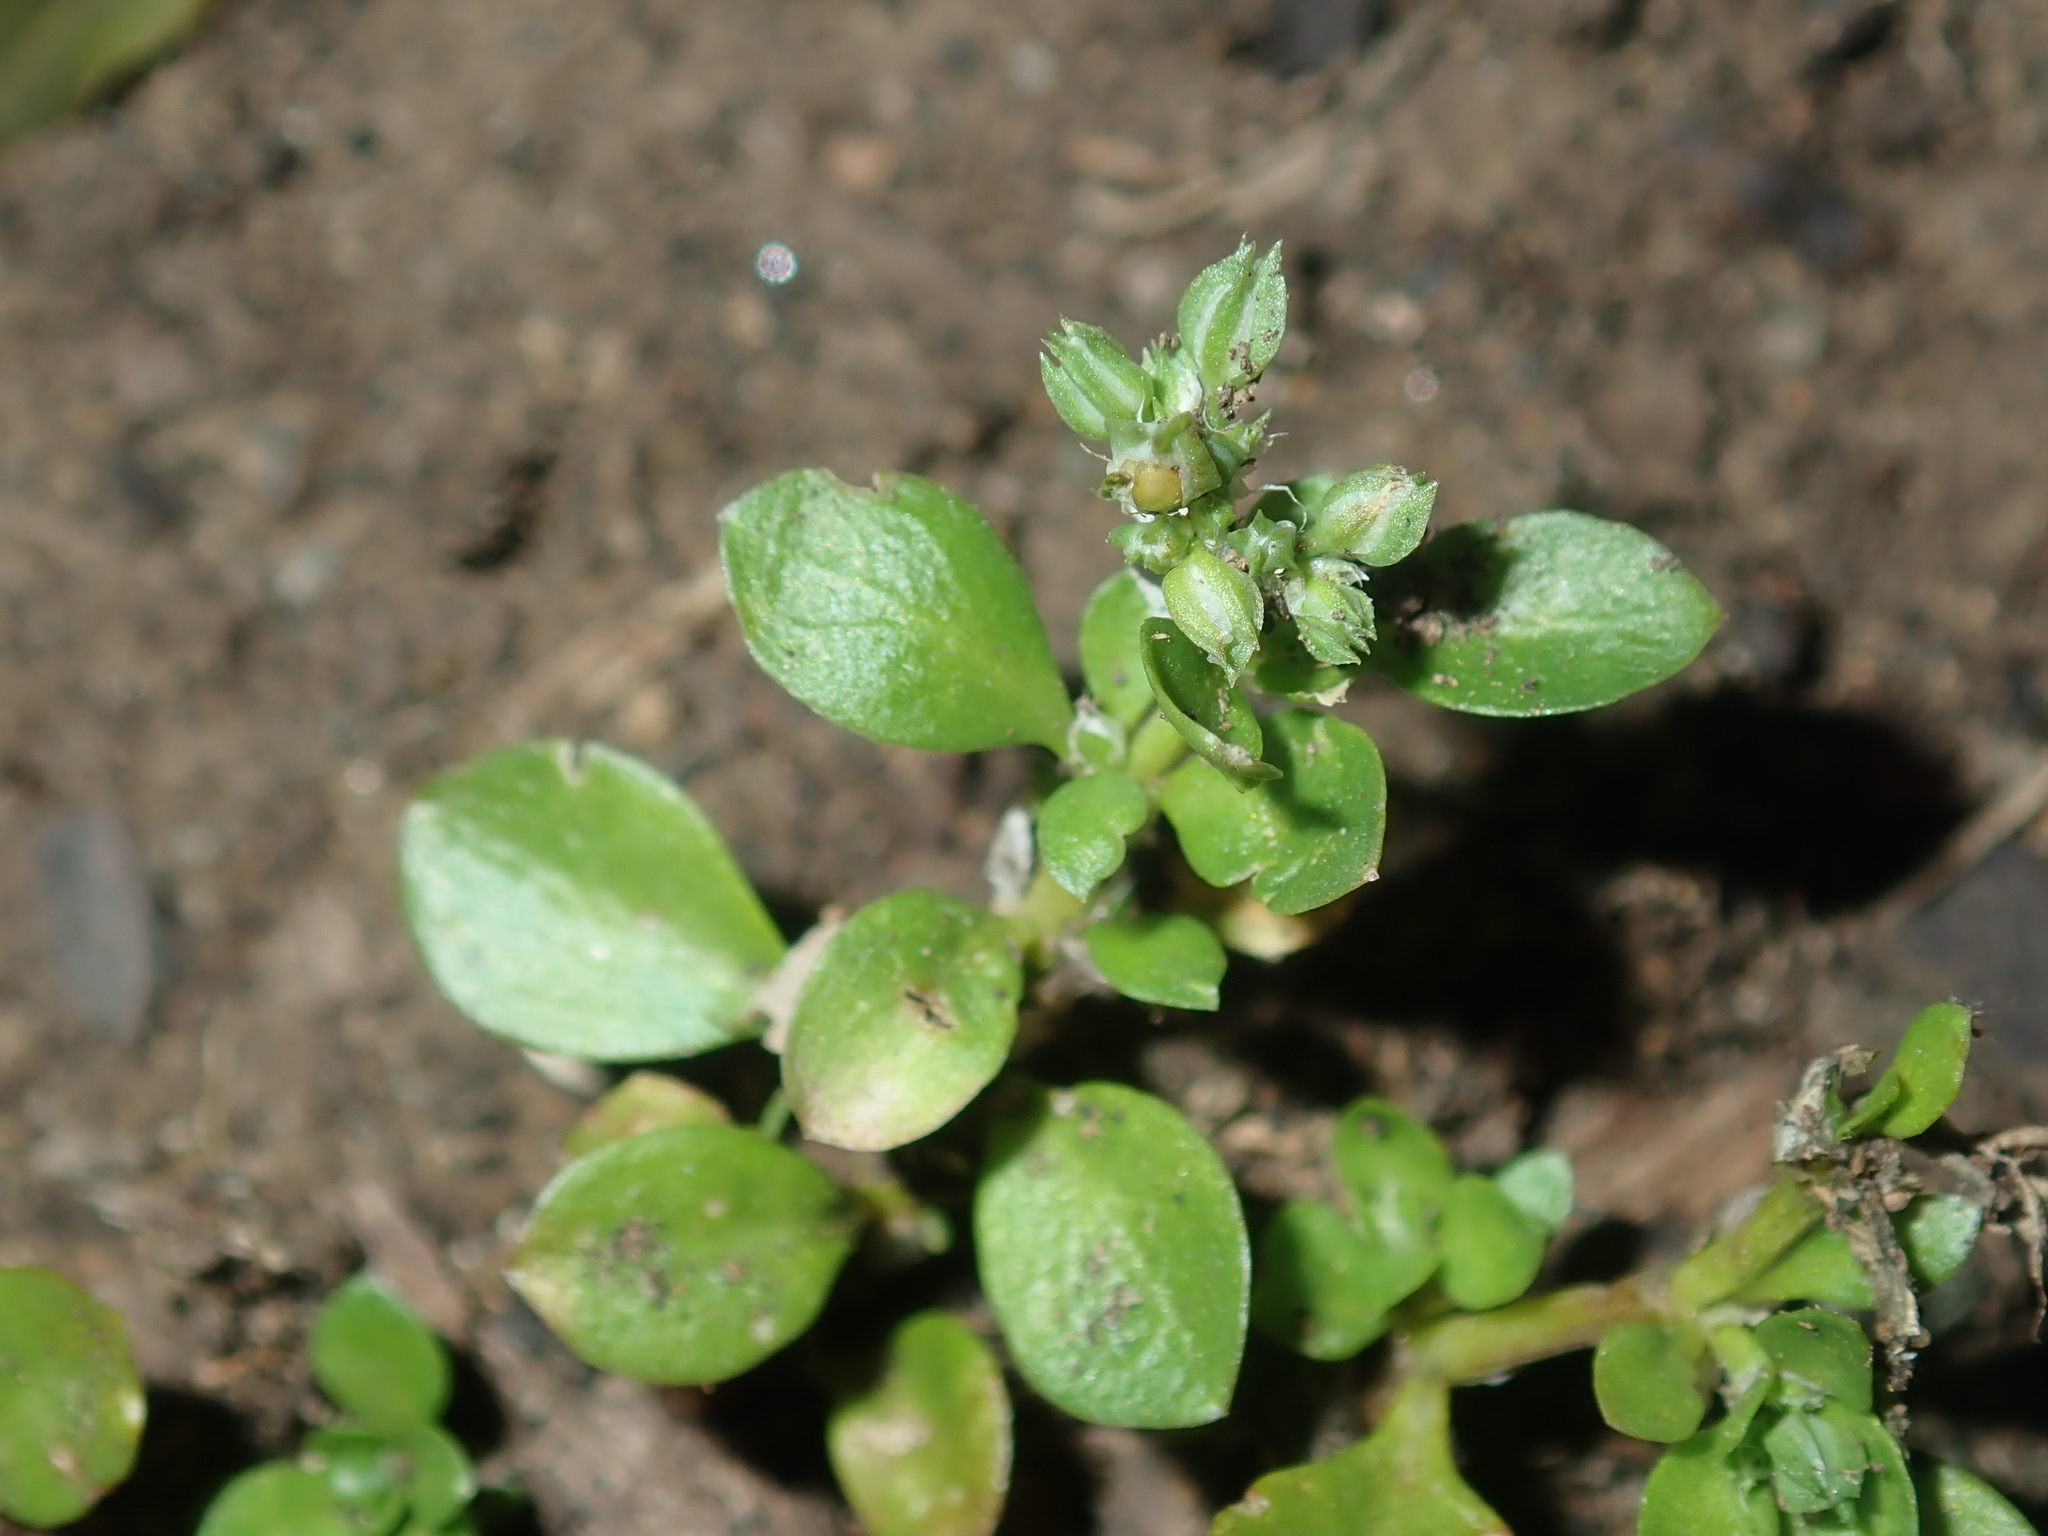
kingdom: Plantae
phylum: Tracheophyta
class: Magnoliopsida
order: Caryophyllales
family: Caryophyllaceae
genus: Polycarpon
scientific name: Polycarpon tetraphyllum
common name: Four-leaved all-seed
